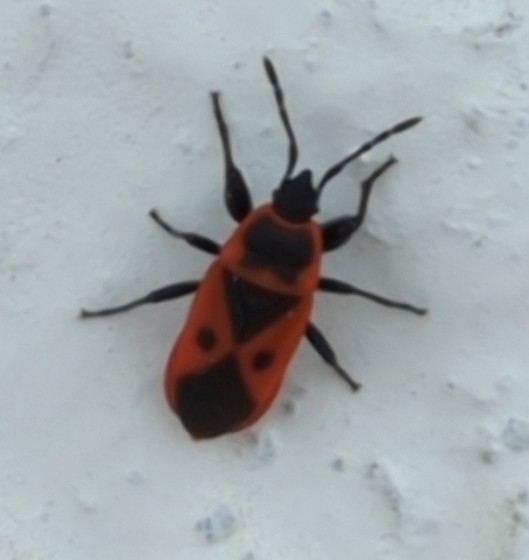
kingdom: Animalia
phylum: Arthropoda
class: Insecta
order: Hemiptera
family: Pyrrhocoridae
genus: Scantius
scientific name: Scantius aegyptius
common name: Red bug
